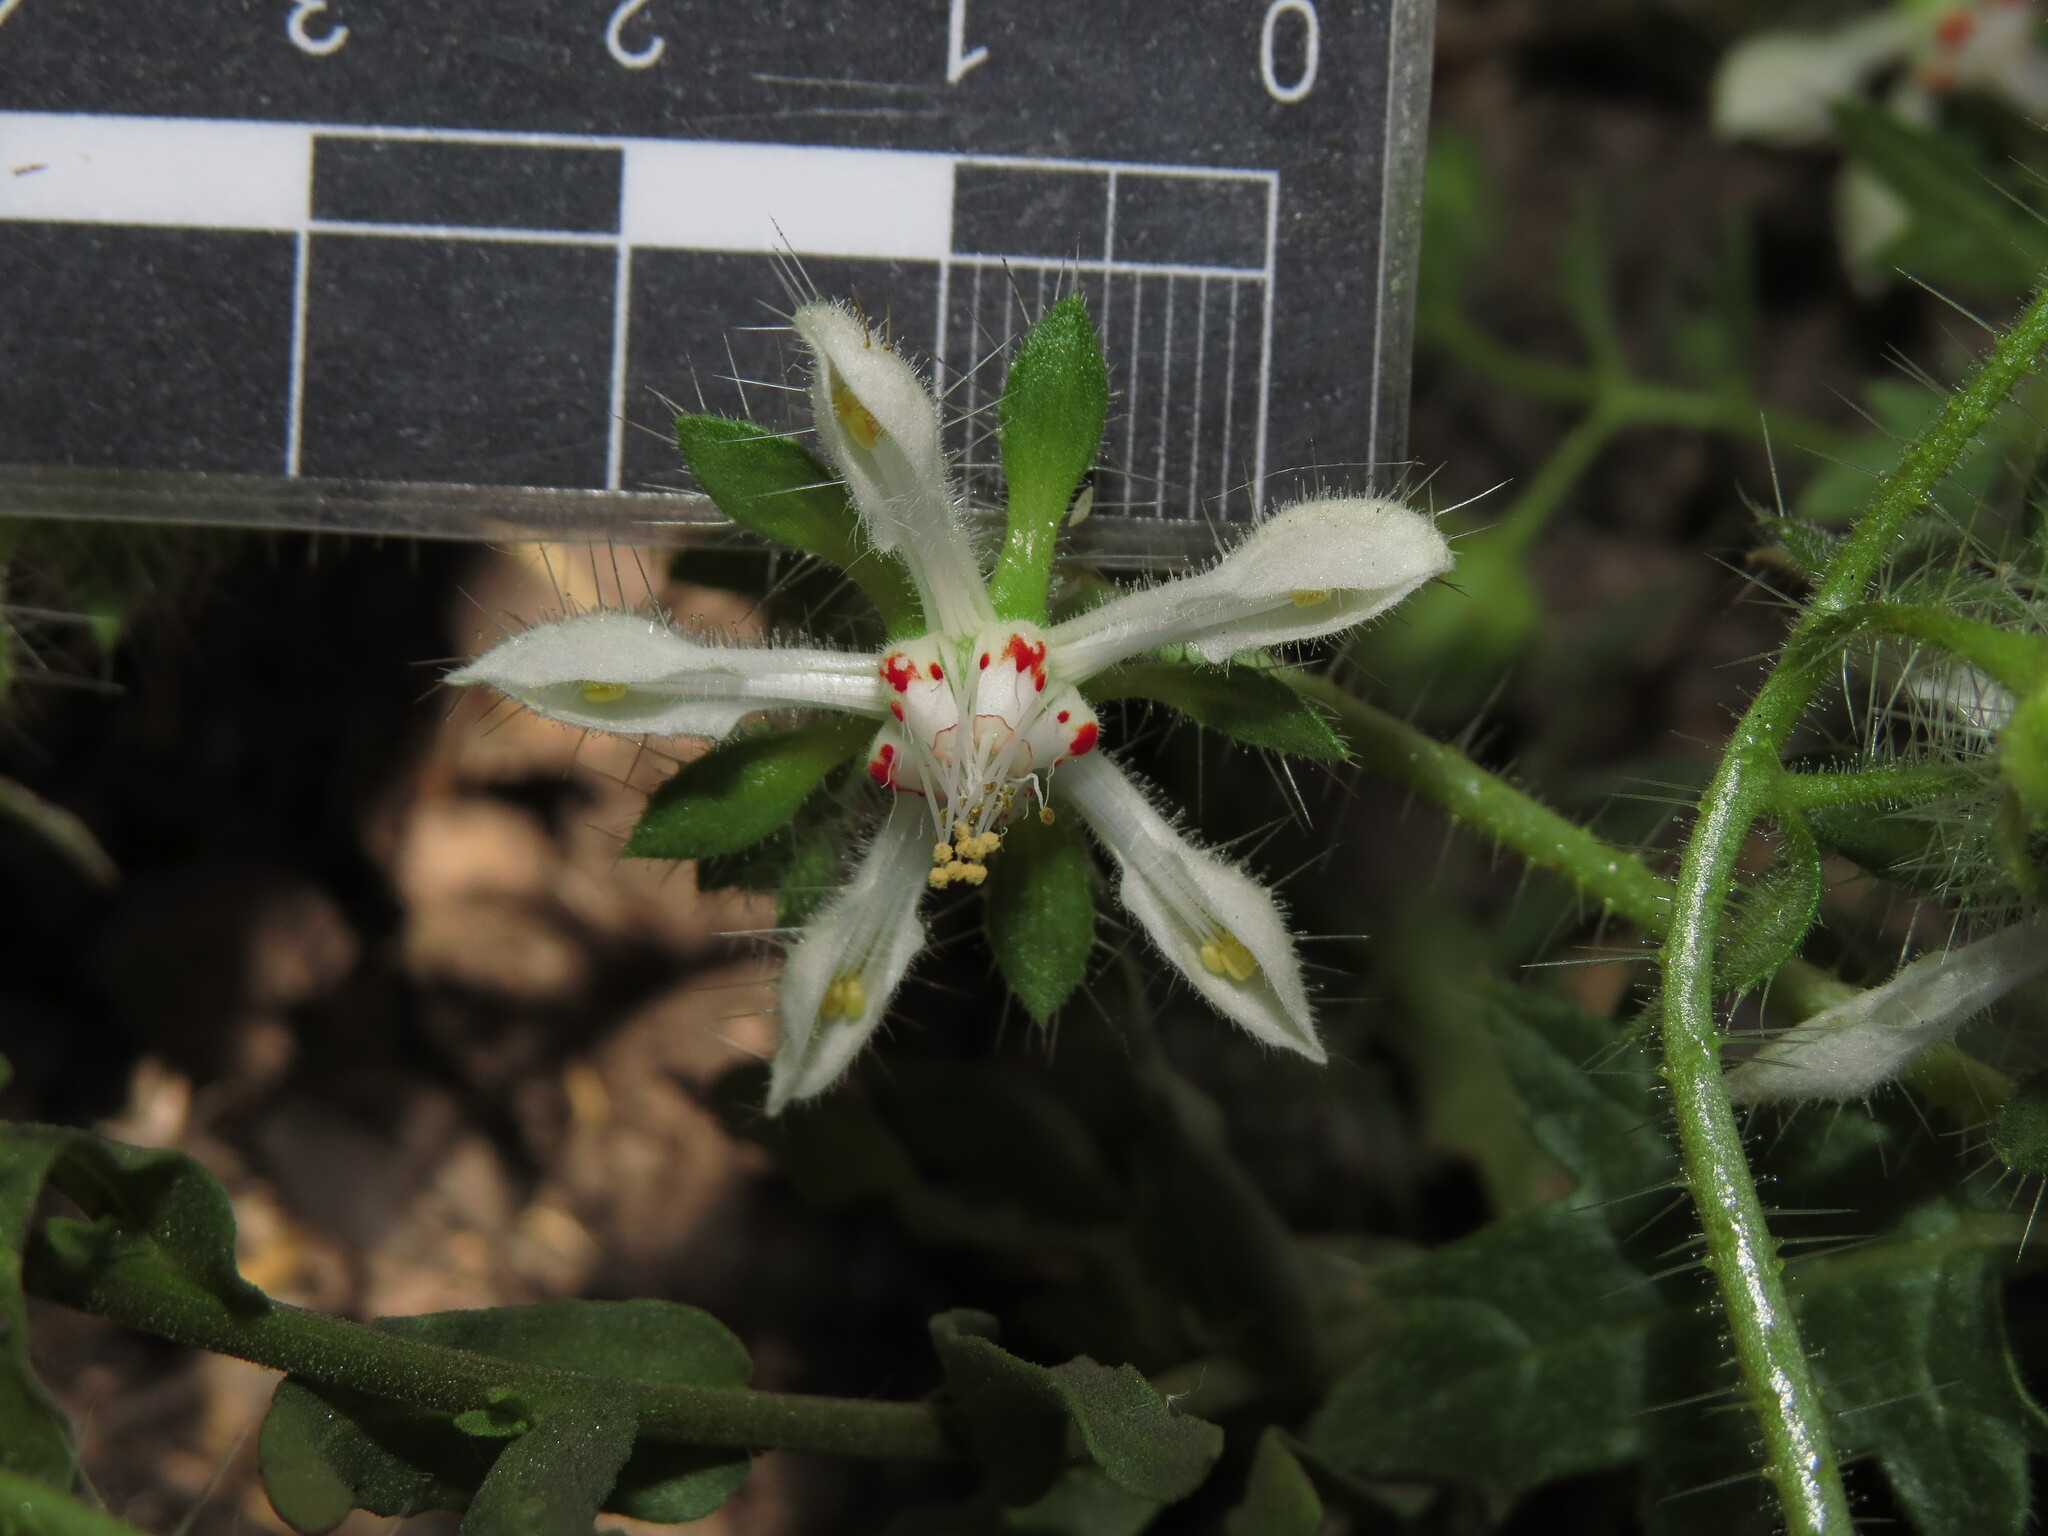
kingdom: Plantae
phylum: Tracheophyta
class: Magnoliopsida
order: Cornales
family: Loasaceae
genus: Loasa
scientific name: Loasa floribunda
